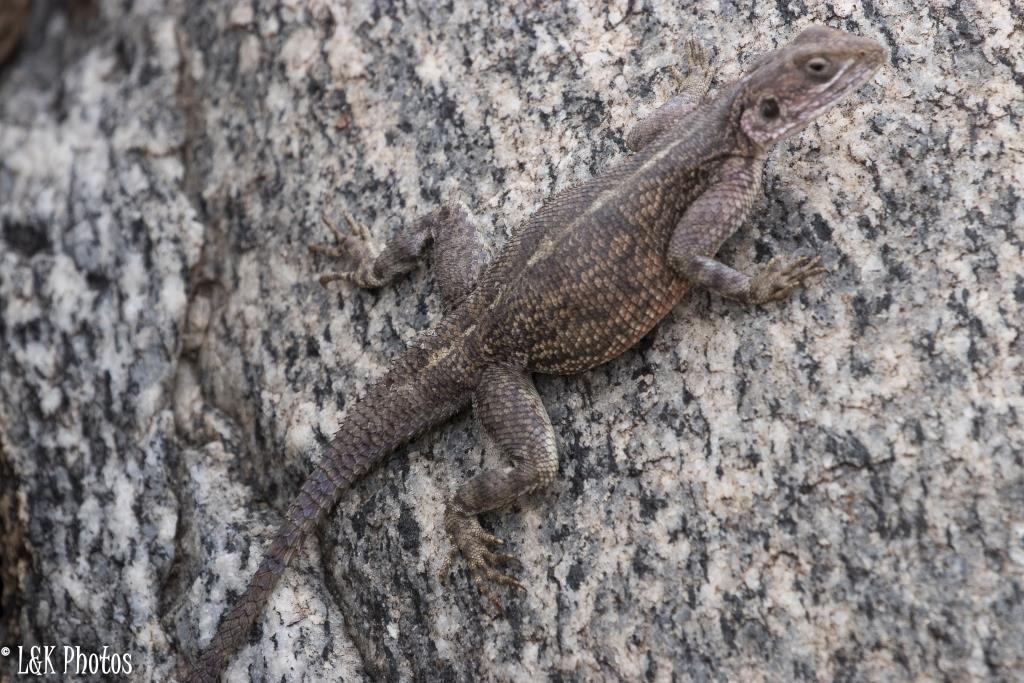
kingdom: Animalia
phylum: Chordata
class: Squamata
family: Agamidae
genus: Agama
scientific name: Agama mwanzae
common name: Mwanza flat-headed agama
